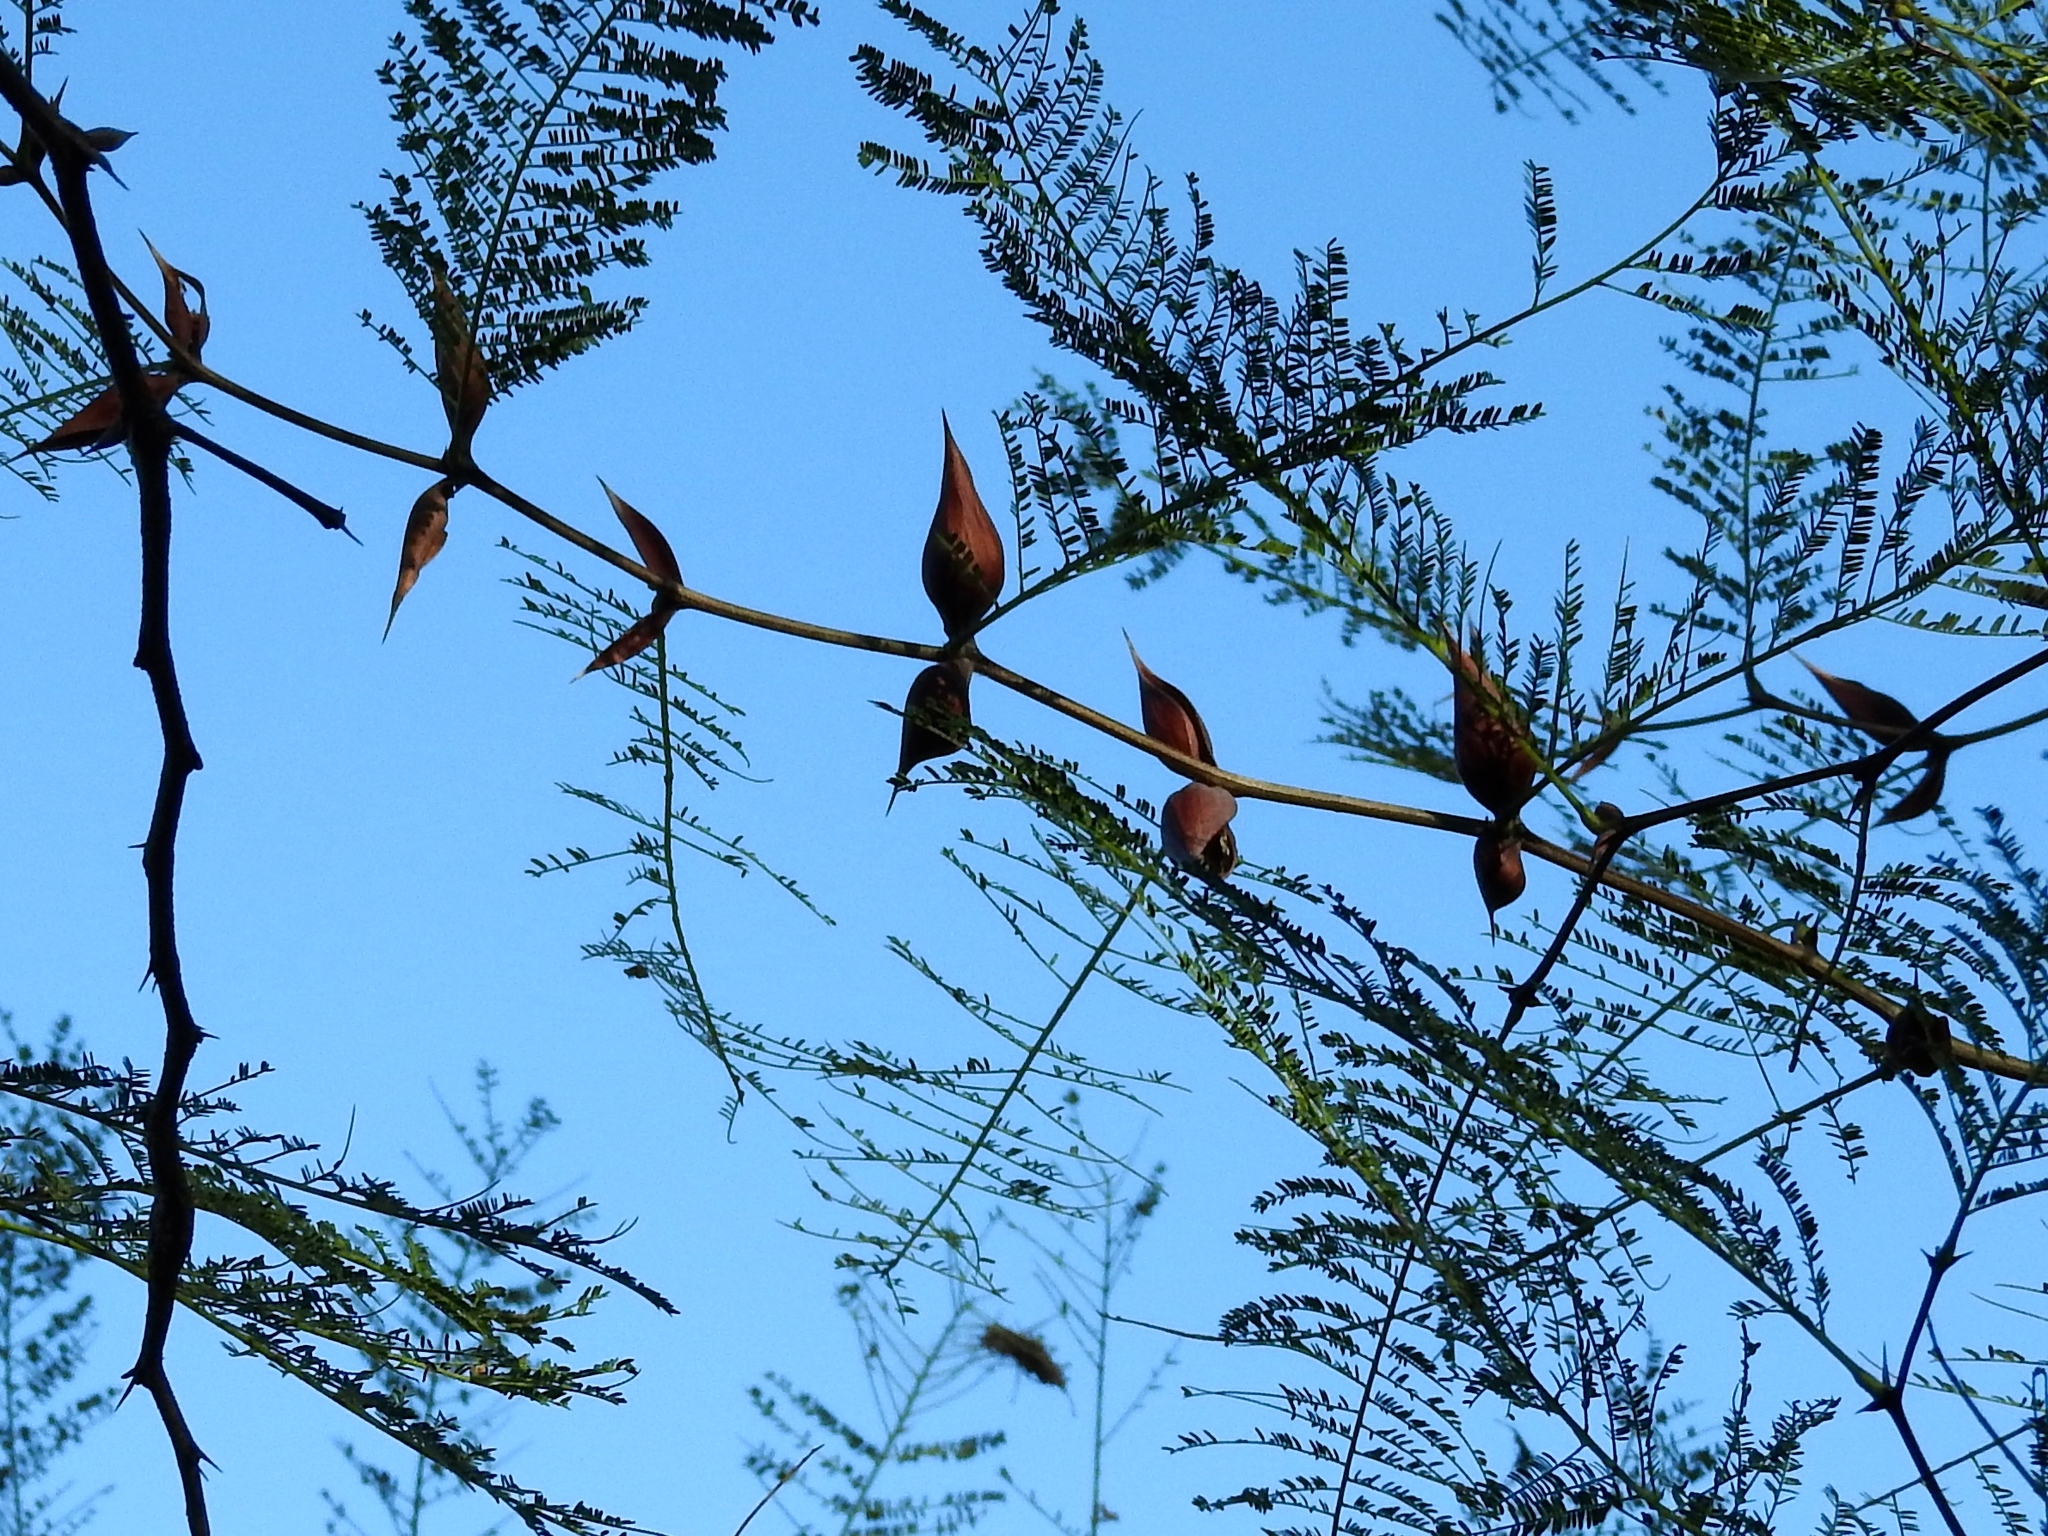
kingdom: Plantae
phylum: Tracheophyta
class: Magnoliopsida
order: Fabales
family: Fabaceae
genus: Vachellia
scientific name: Vachellia campechiana
